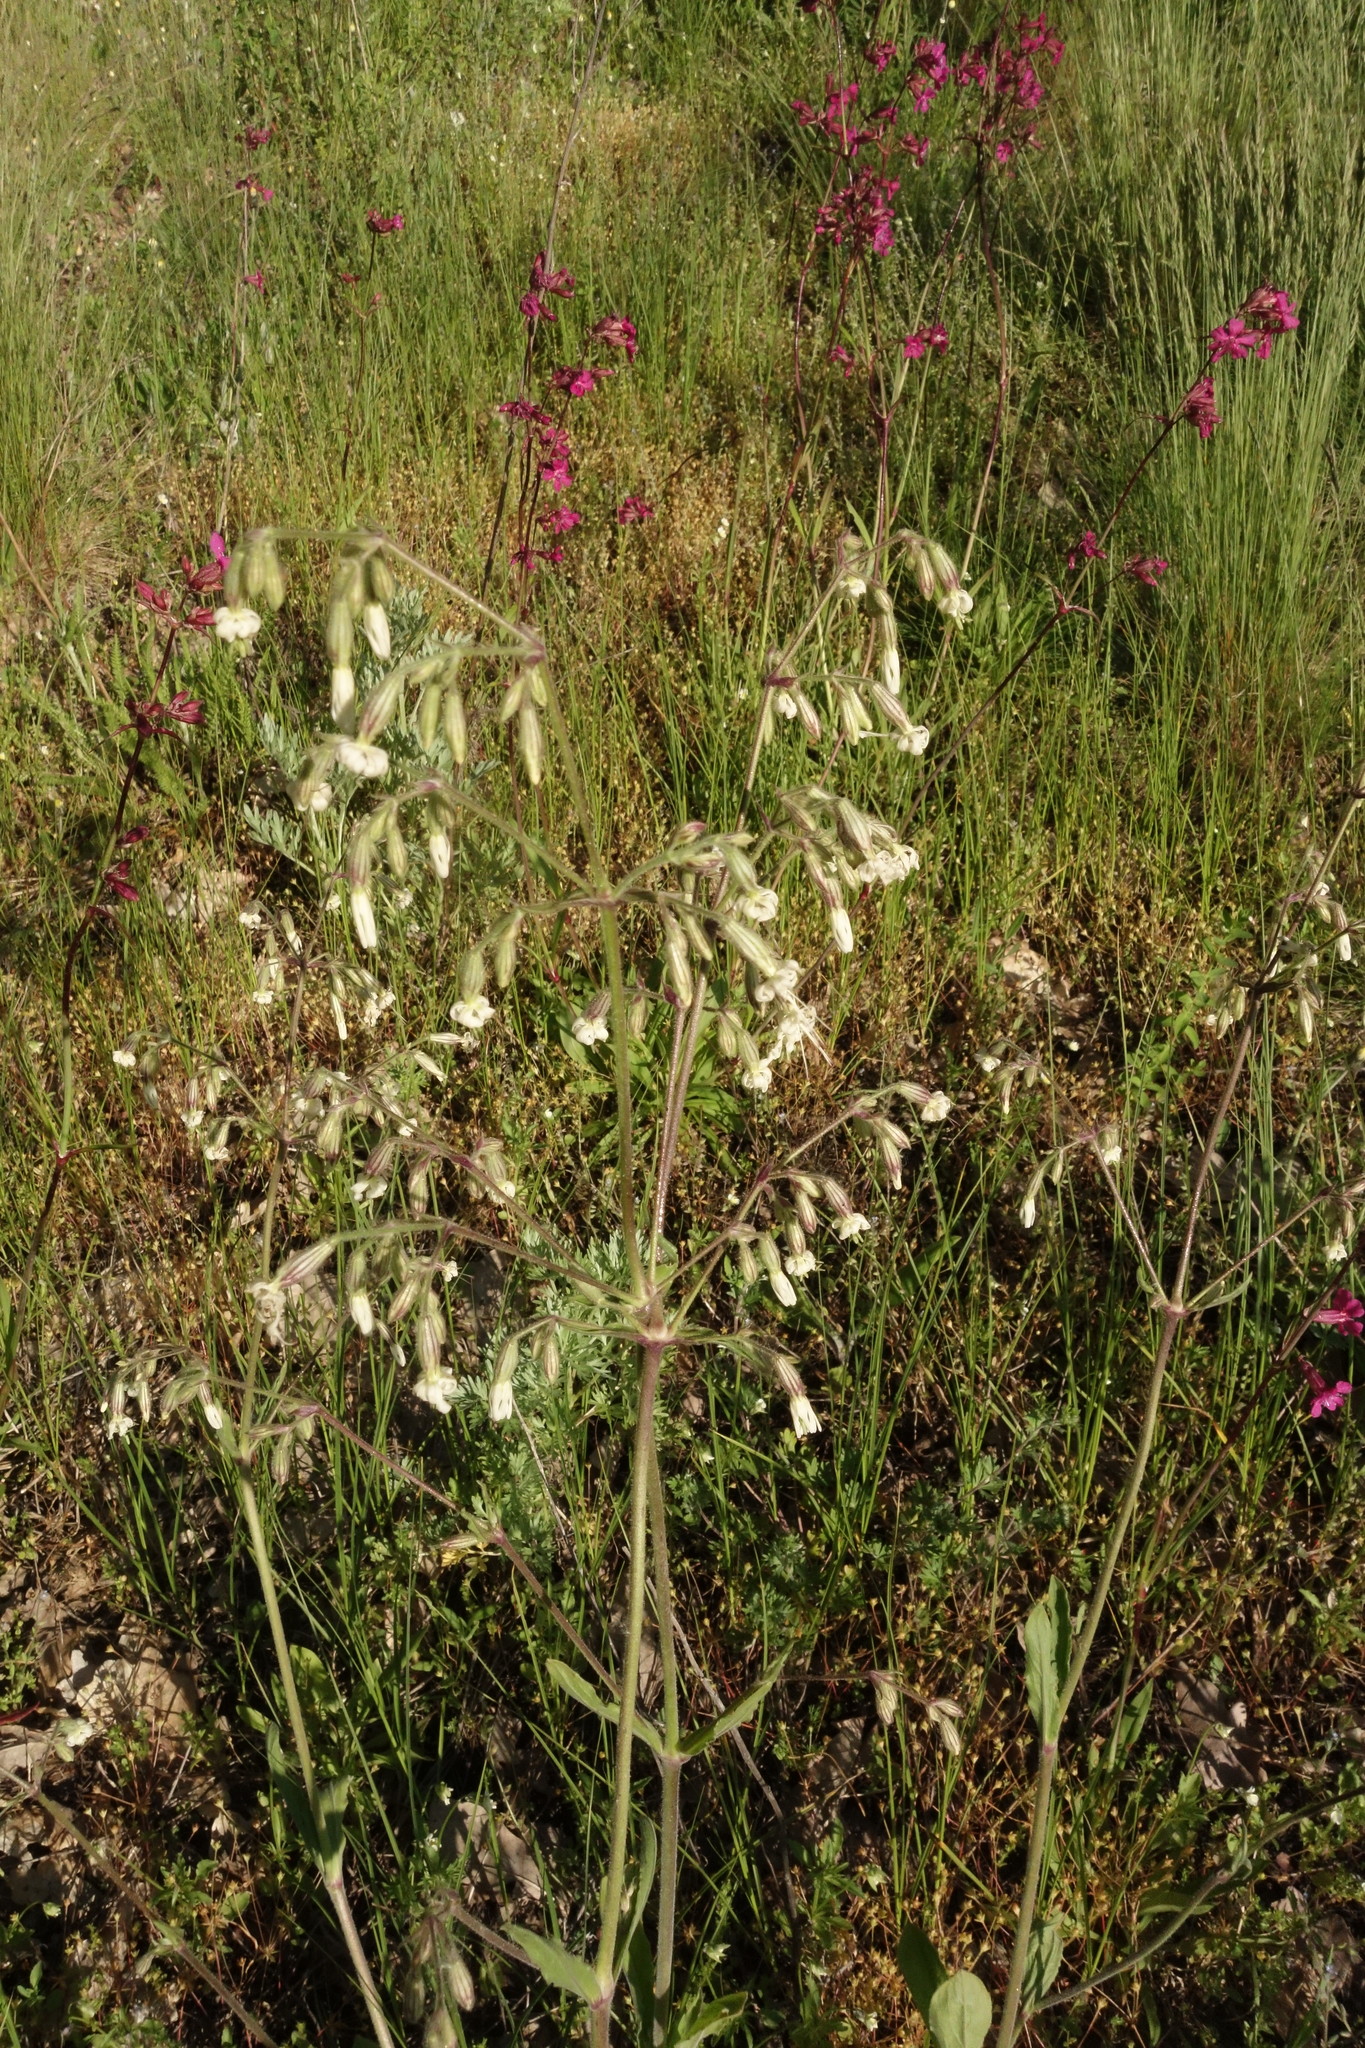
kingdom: Plantae
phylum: Tracheophyta
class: Magnoliopsida
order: Caryophyllales
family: Caryophyllaceae
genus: Silene
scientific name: Silene nutans
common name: Nottingham catchfly
